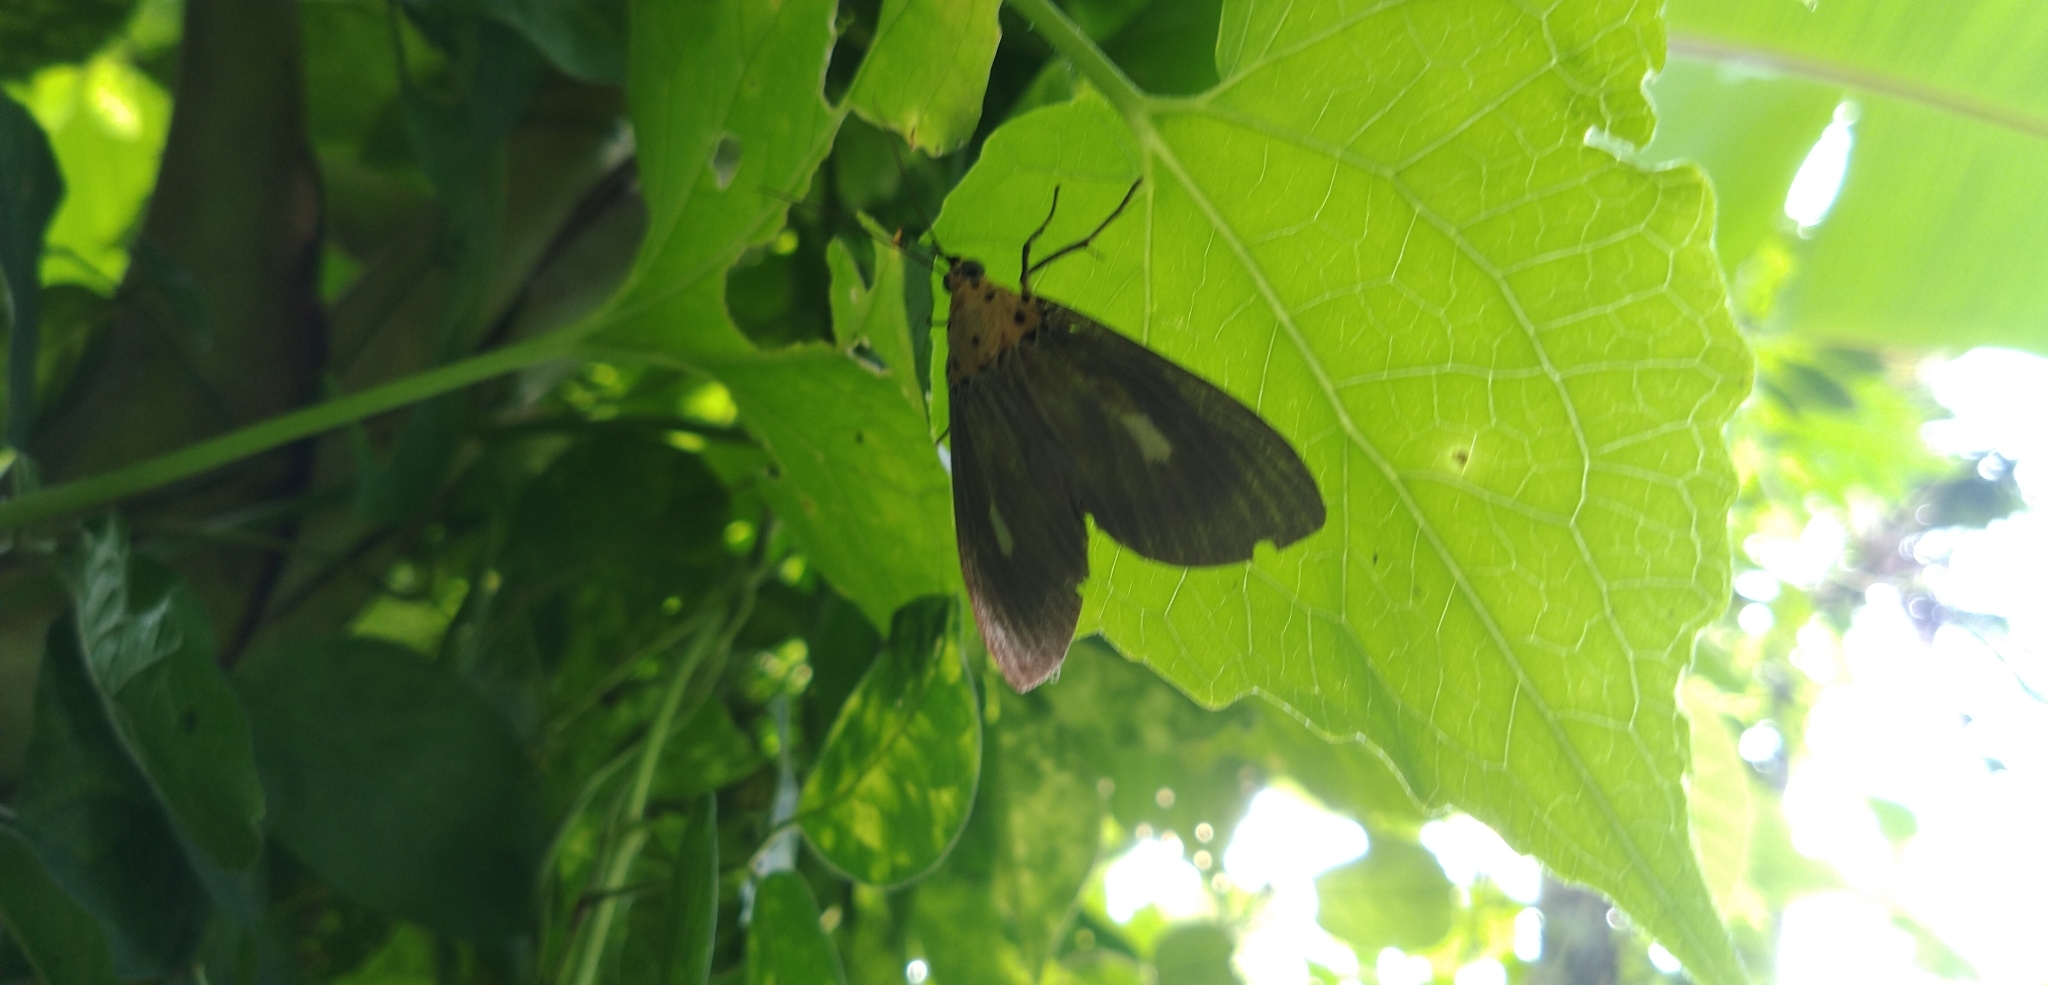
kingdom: Animalia
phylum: Arthropoda
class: Insecta
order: Lepidoptera
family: Erebidae
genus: Asota
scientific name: Asota plaginota
